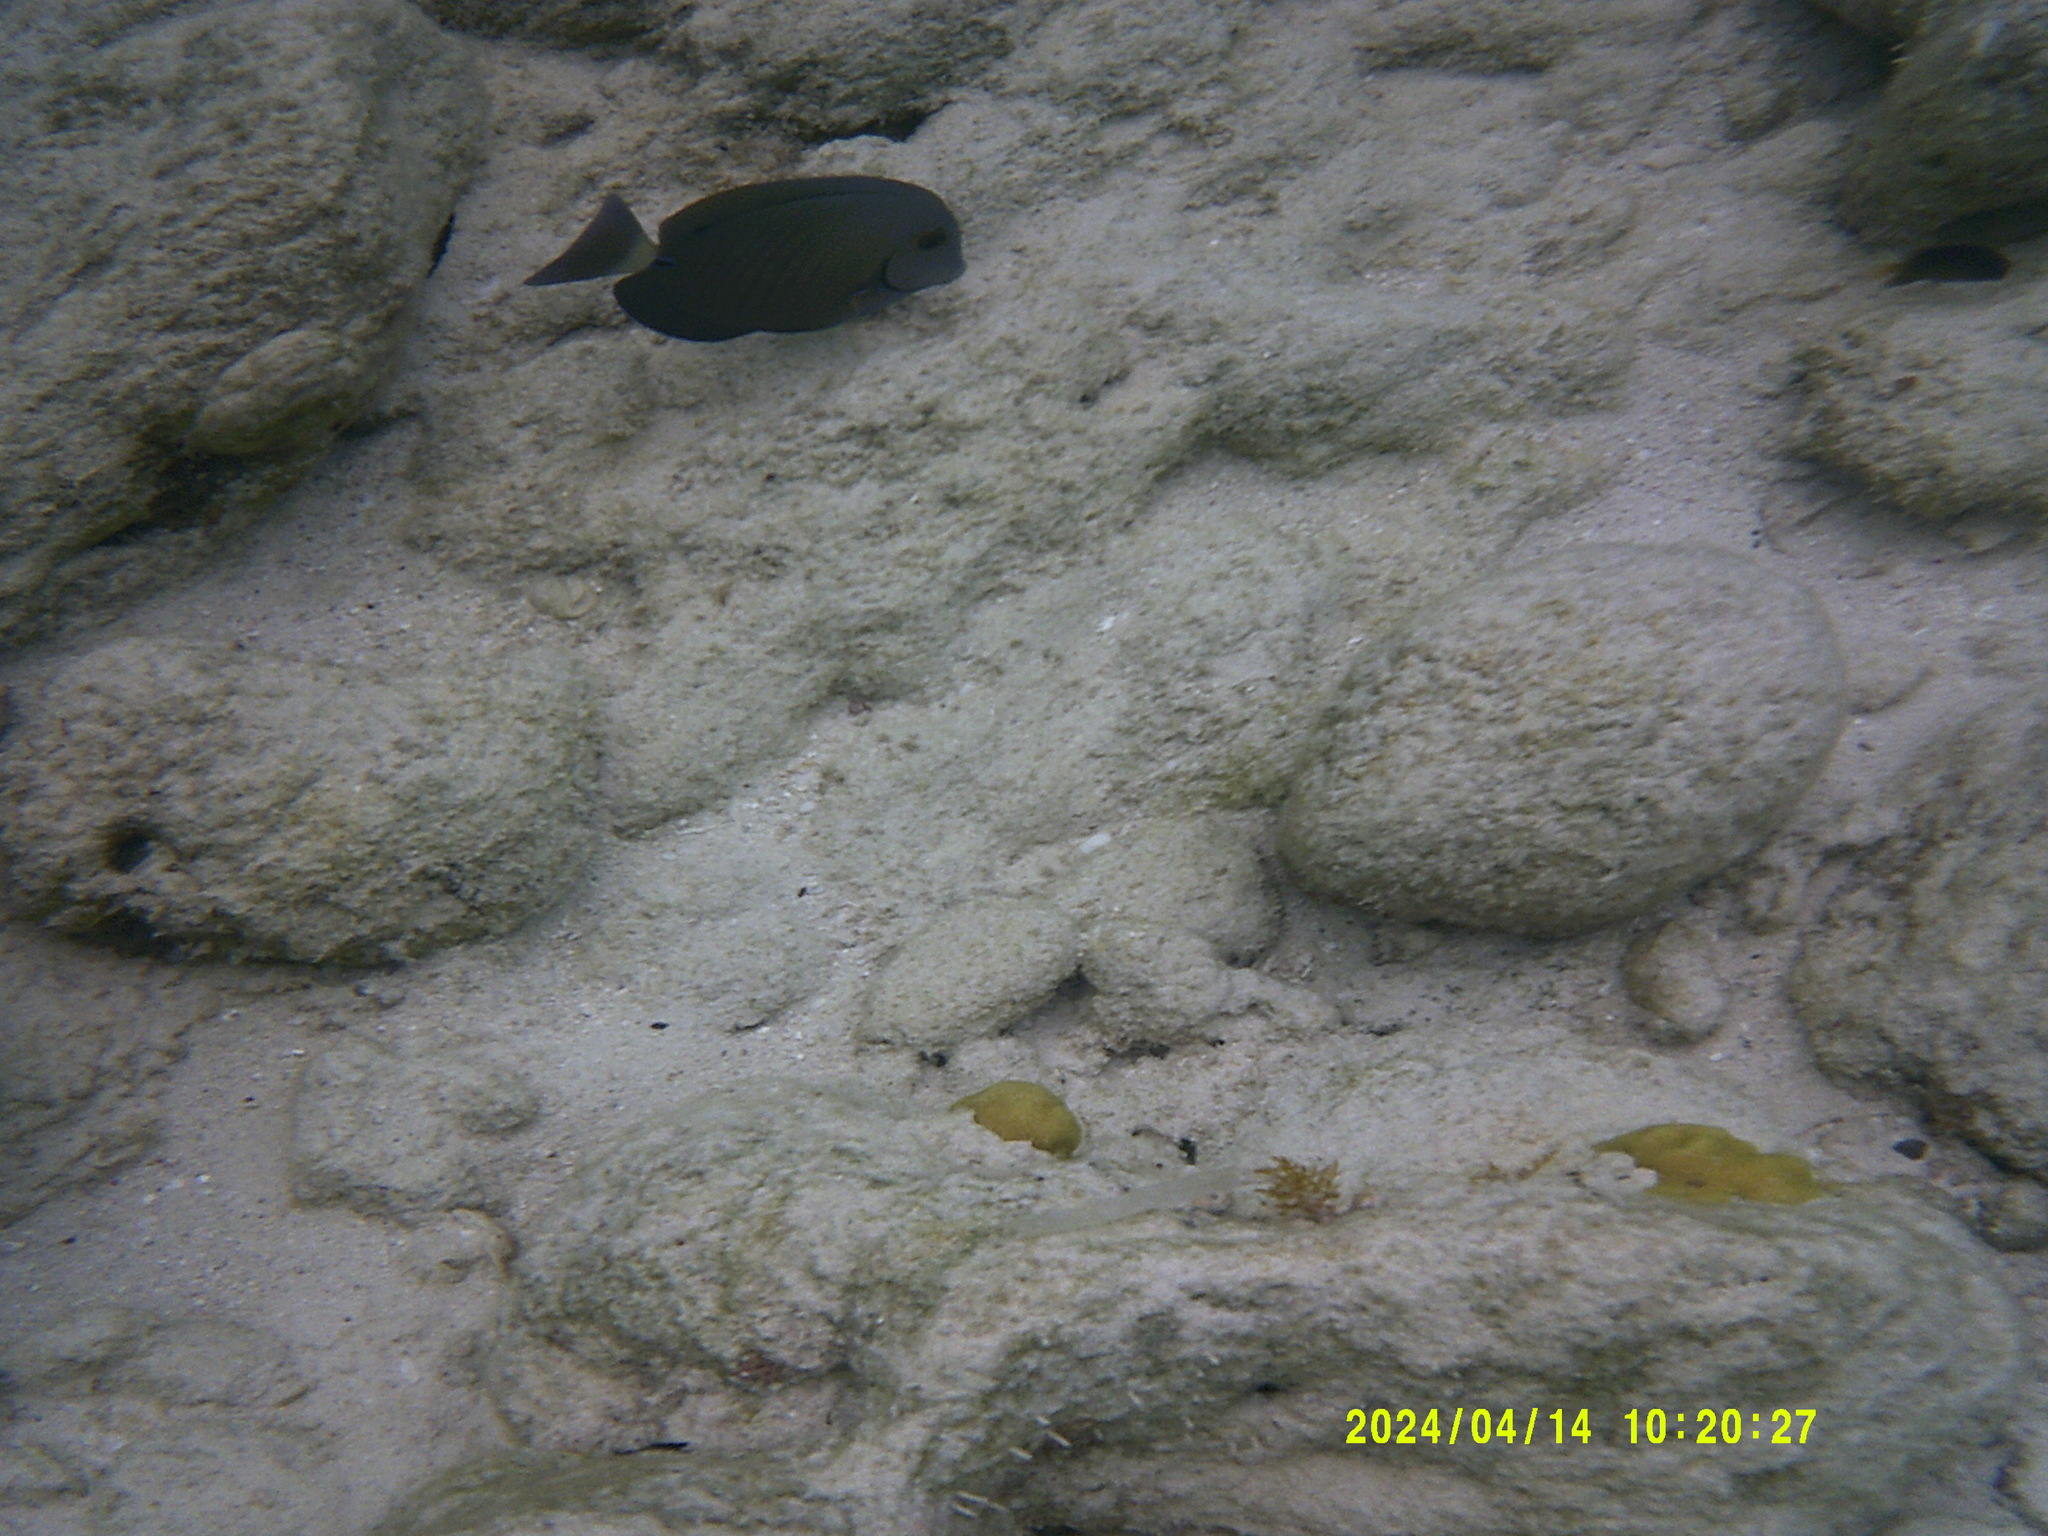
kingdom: Animalia
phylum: Chordata
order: Perciformes
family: Acanthuridae
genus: Acanthurus
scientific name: Acanthurus chirurgus
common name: Doctorfish
